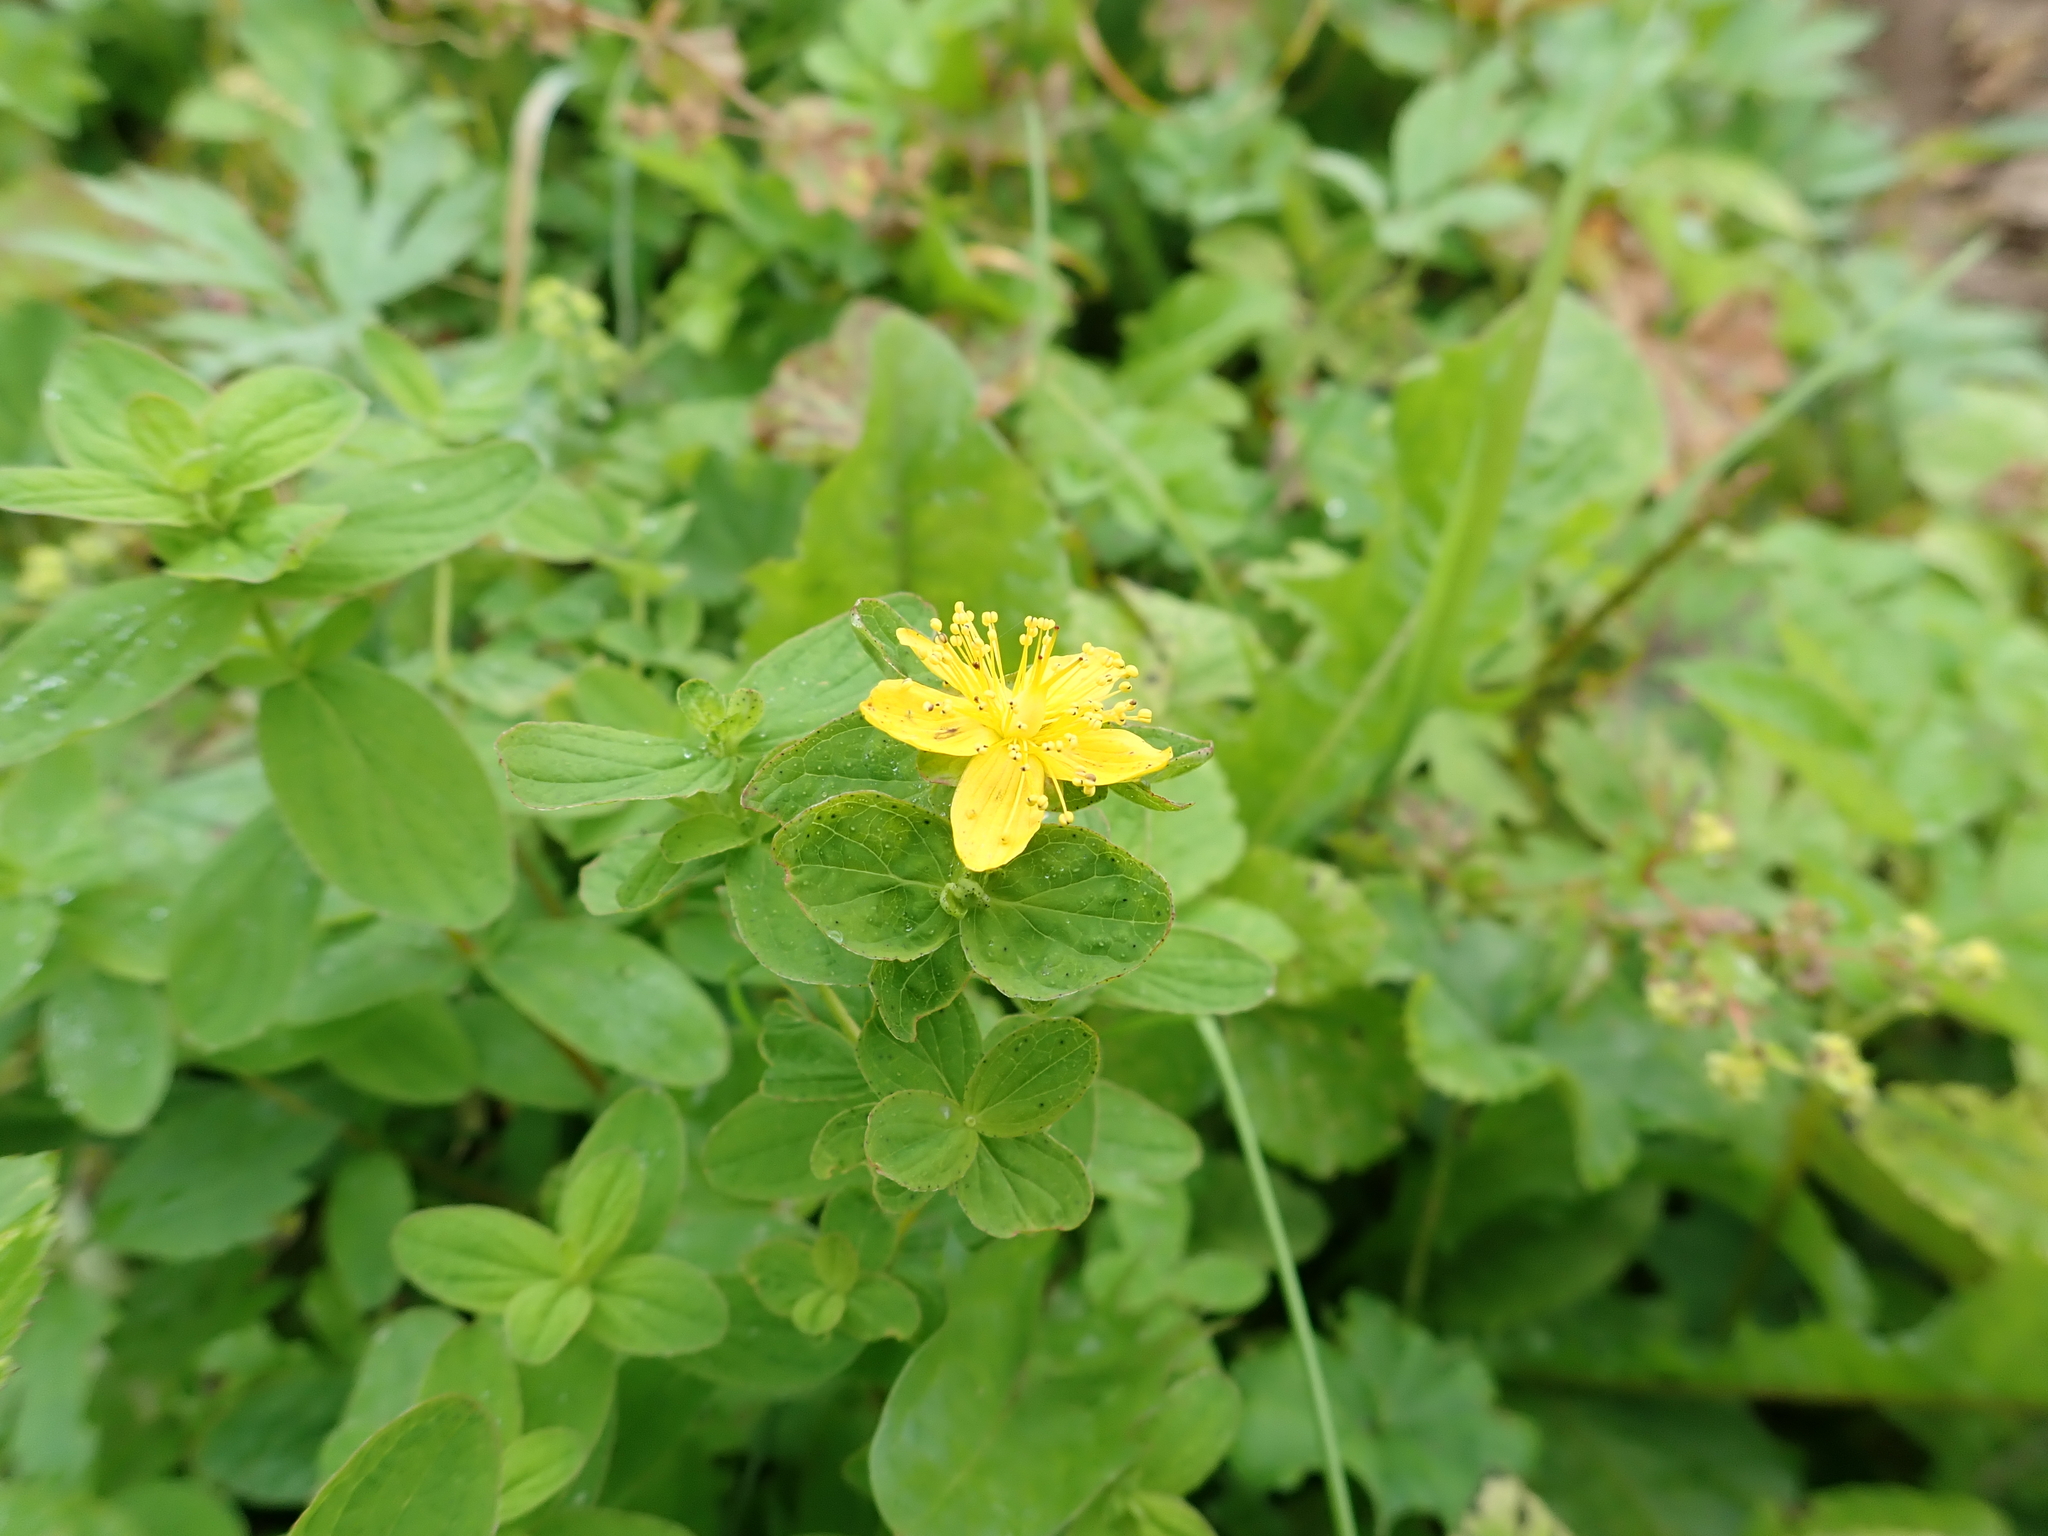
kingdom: Plantae
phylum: Tracheophyta
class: Magnoliopsida
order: Malpighiales
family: Hypericaceae
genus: Hypericum
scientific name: Hypericum maculatum
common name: Imperforate st. john's-wort
